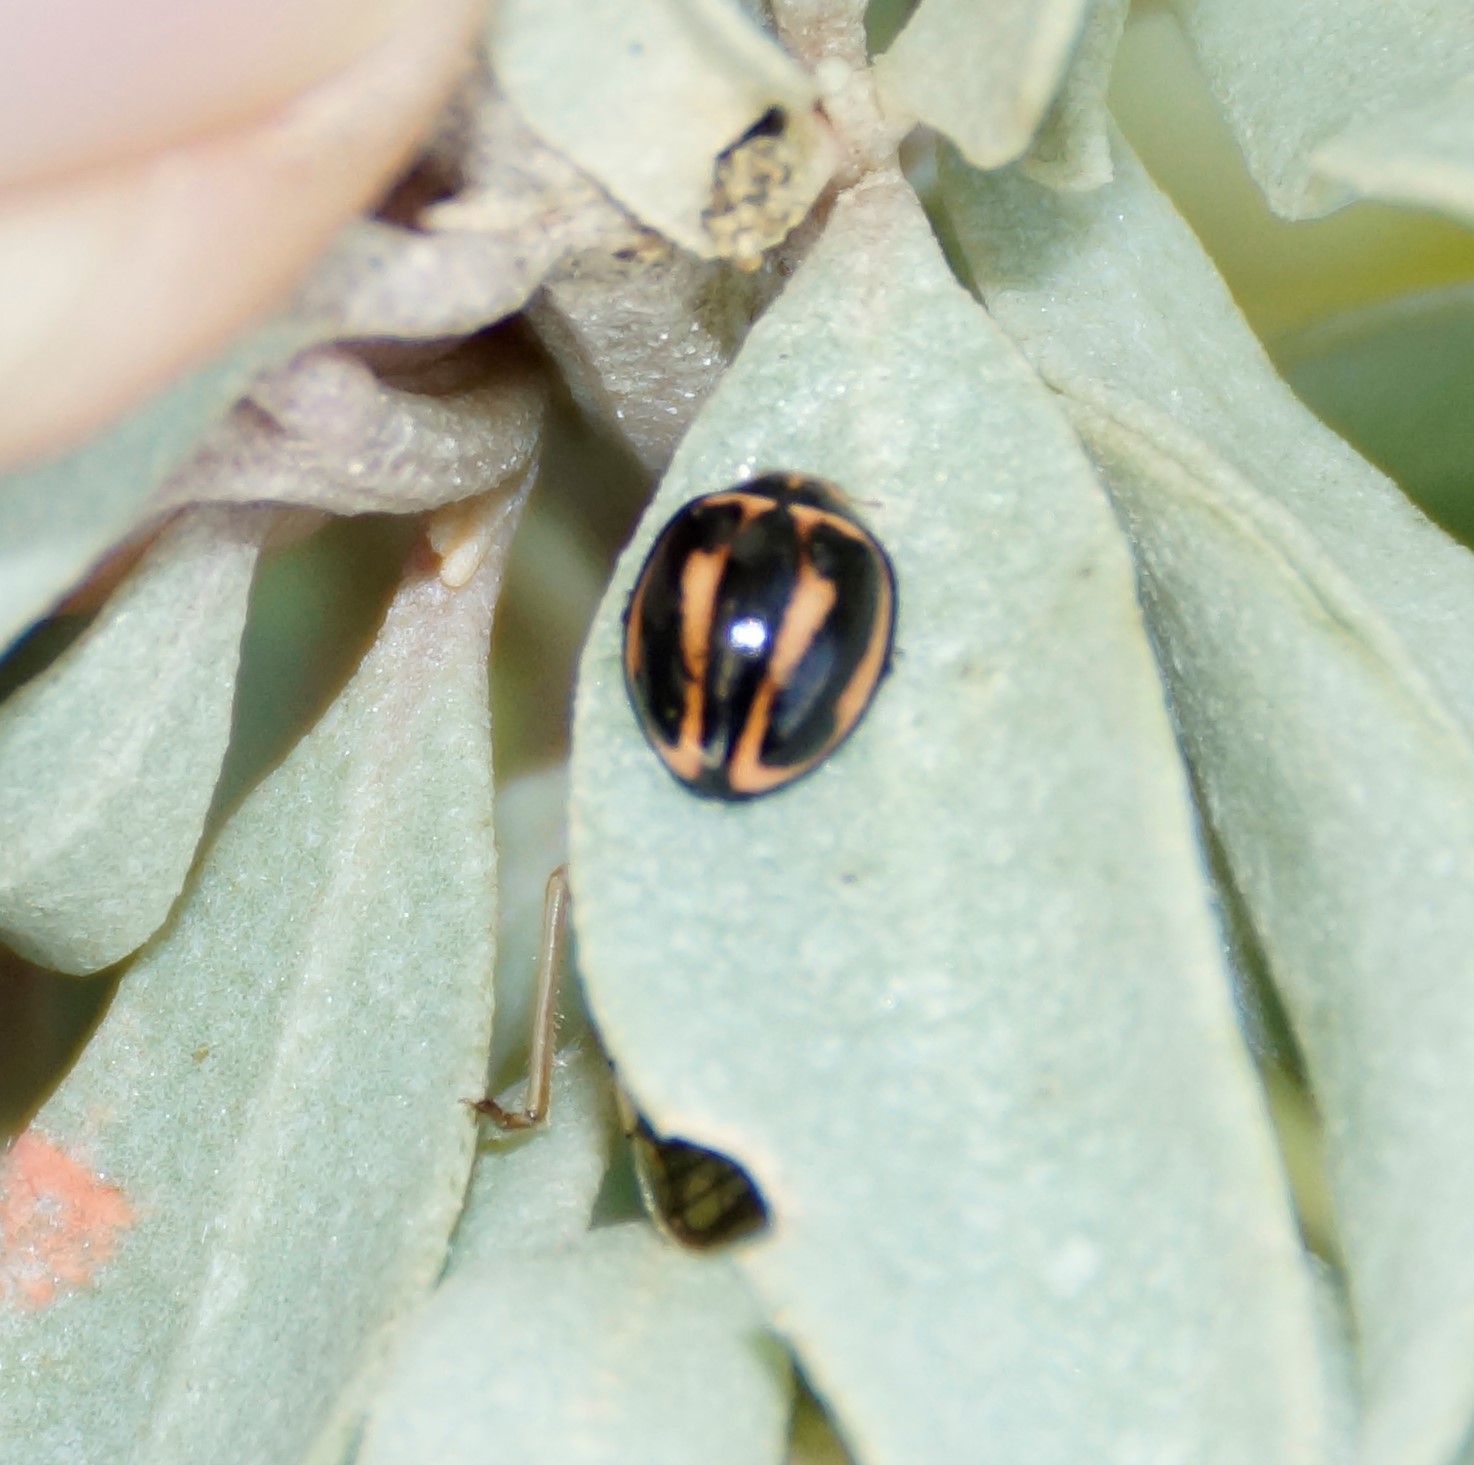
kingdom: Animalia
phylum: Arthropoda
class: Insecta
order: Coleoptera
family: Coccinellidae
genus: Micraspis
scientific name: Micraspis frenata
